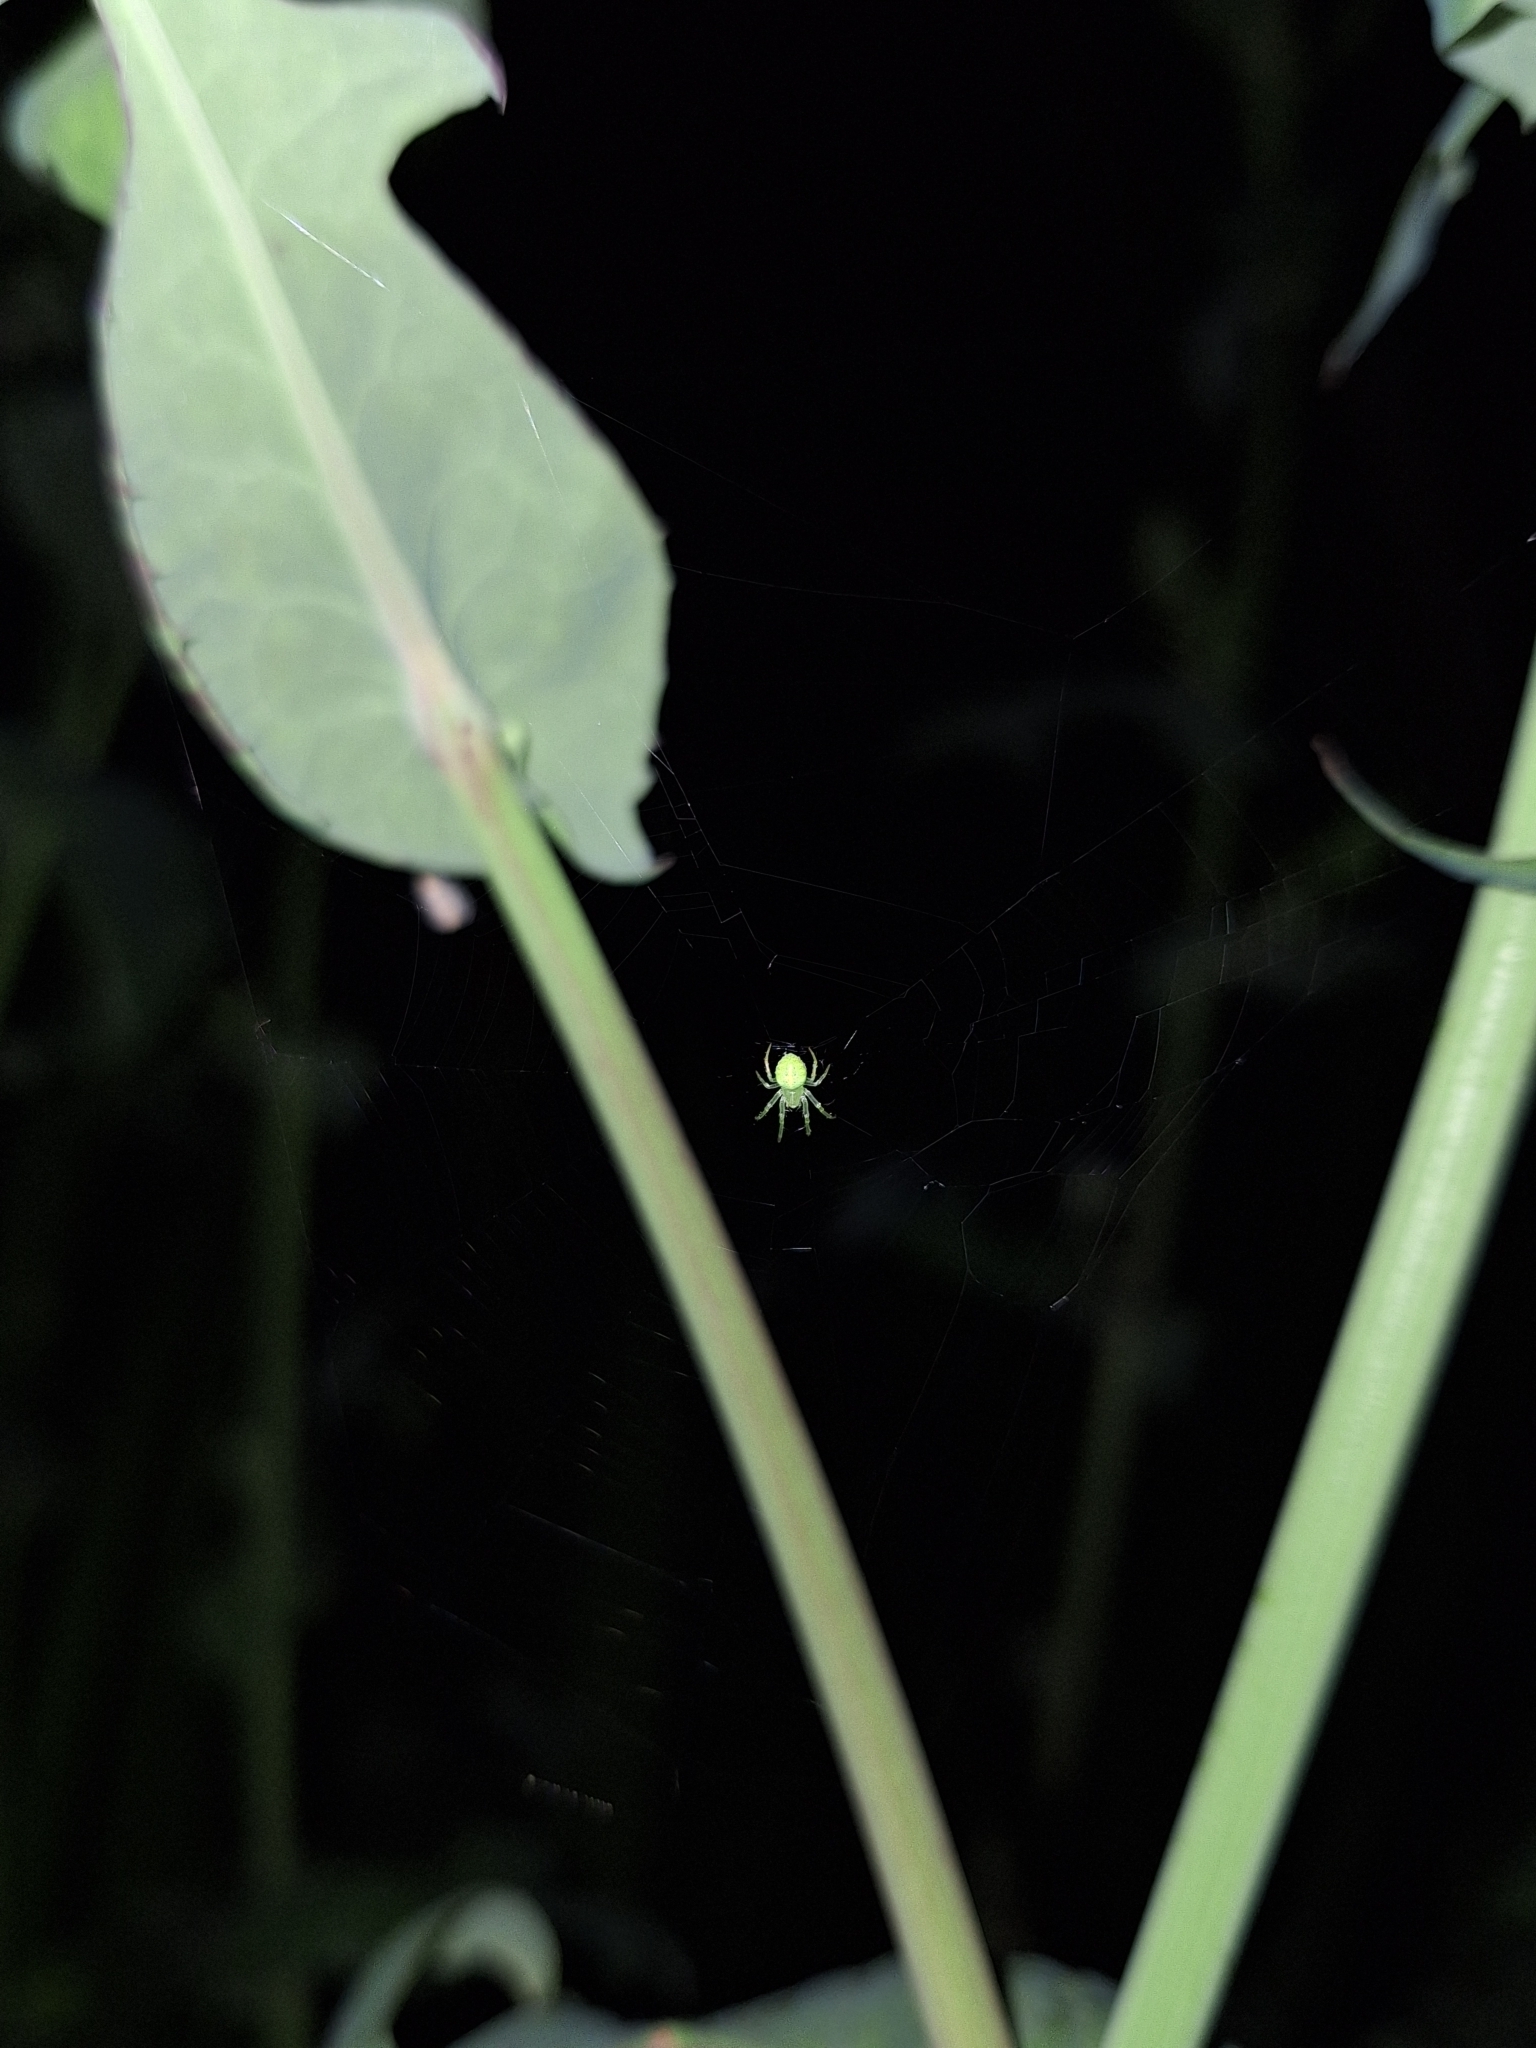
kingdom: Animalia
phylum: Arthropoda
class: Arachnida
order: Araneae
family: Araneidae
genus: Araneus
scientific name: Araneus uniformis
